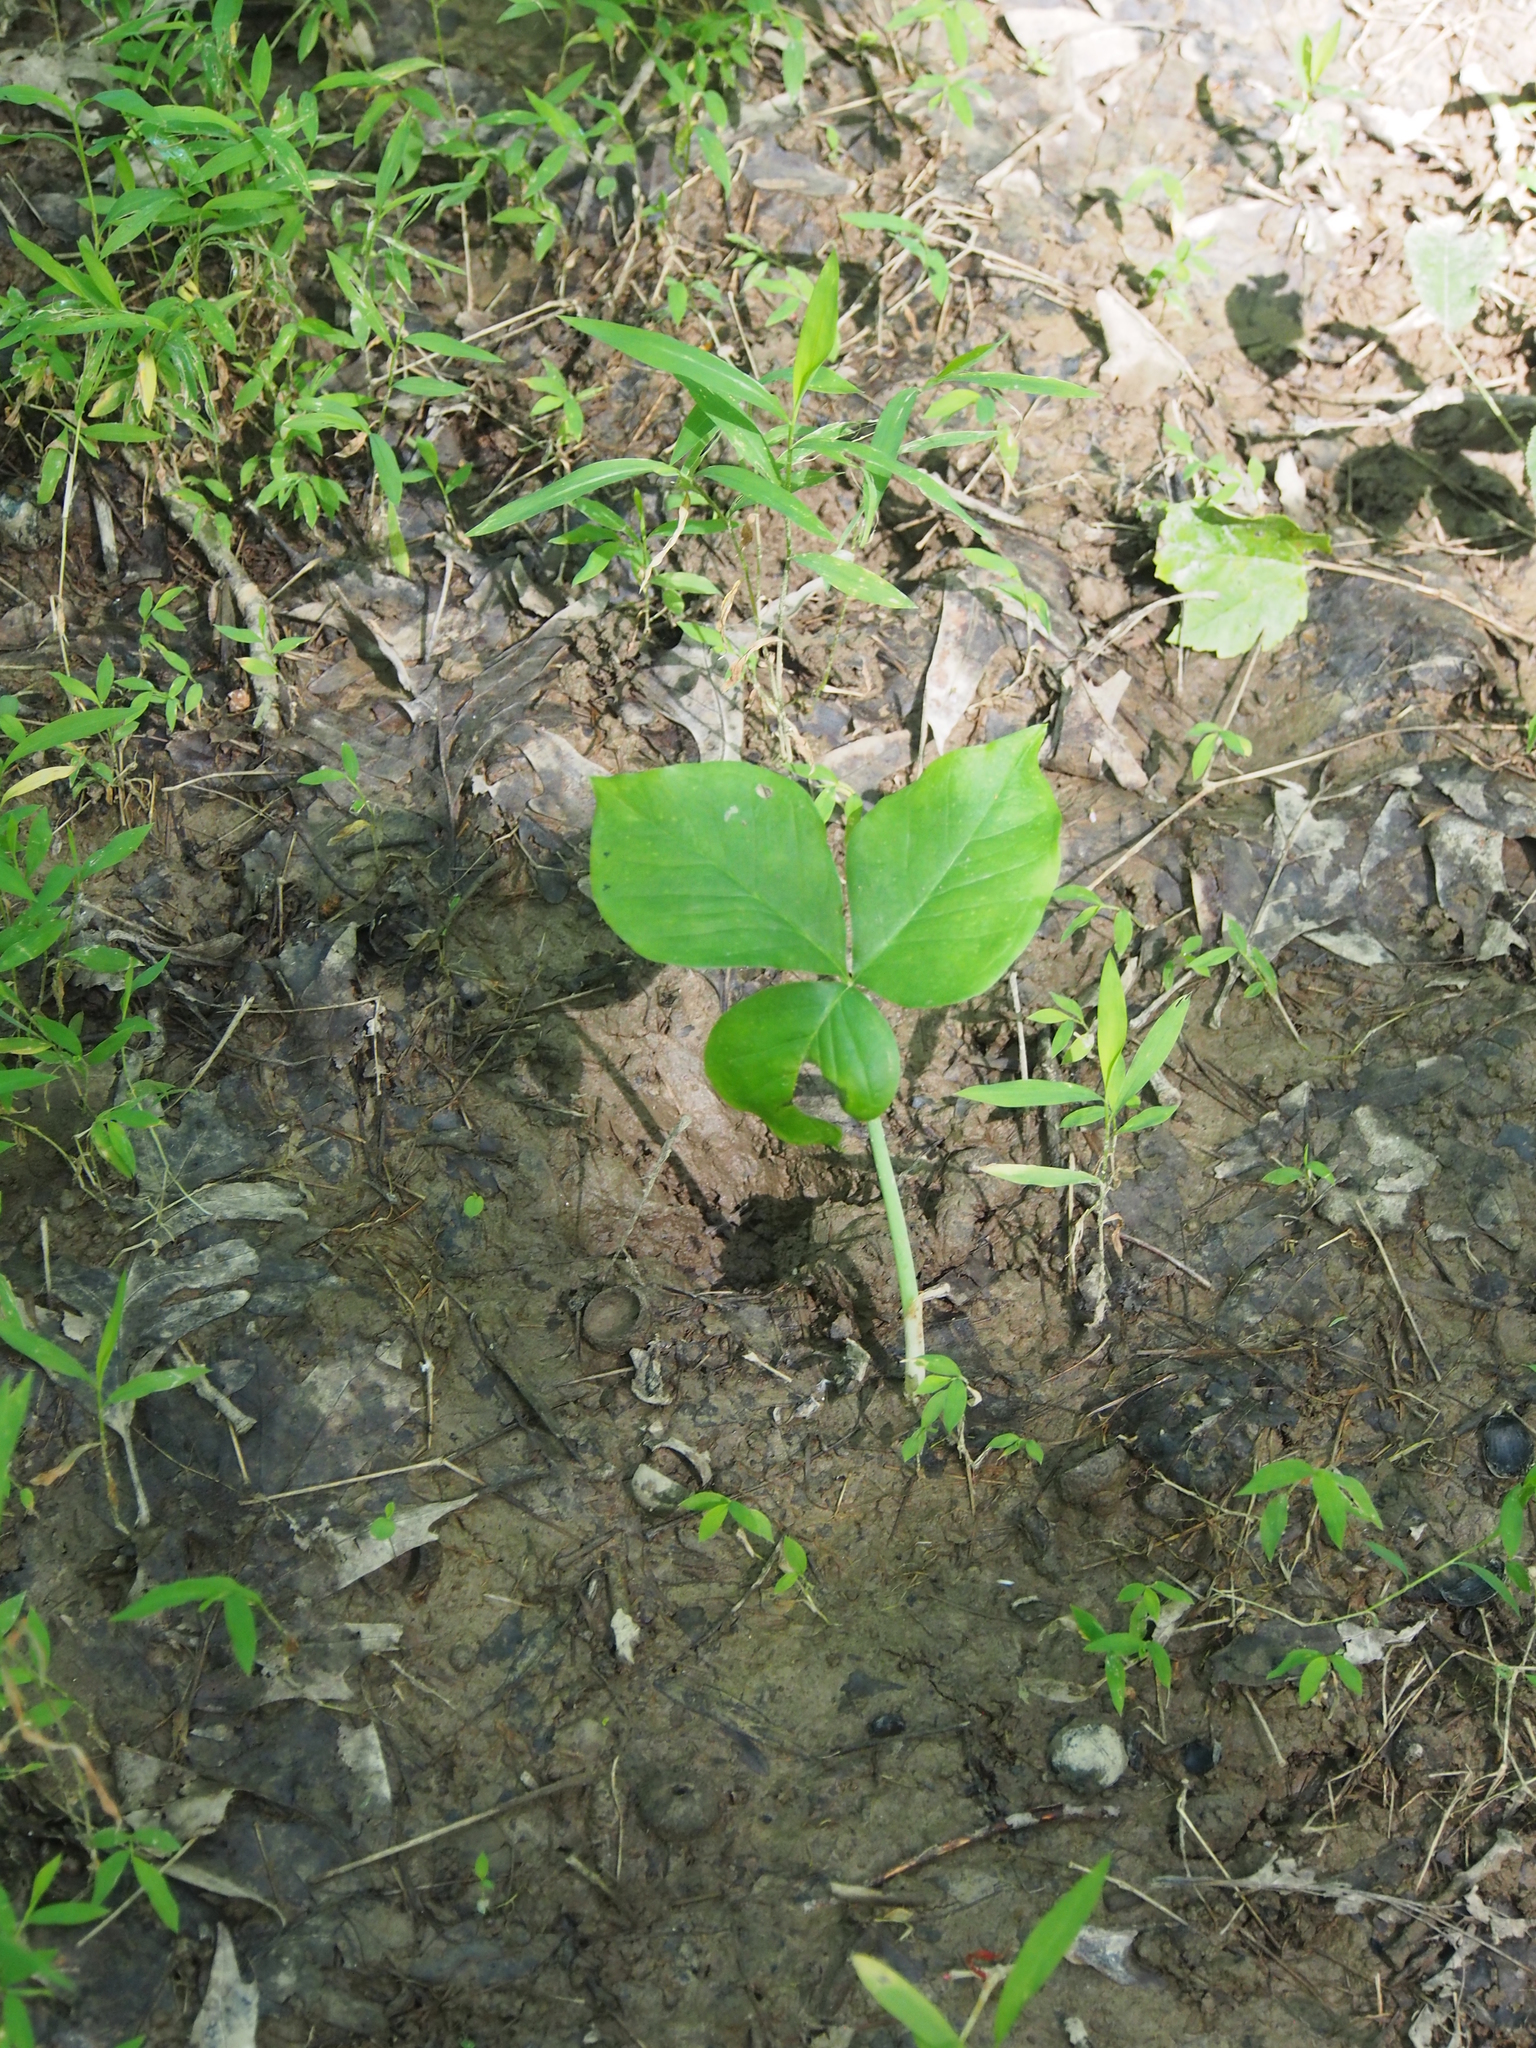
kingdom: Plantae
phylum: Tracheophyta
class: Liliopsida
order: Alismatales
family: Araceae
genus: Arisaema
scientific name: Arisaema triphyllum
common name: Jack-in-the-pulpit
